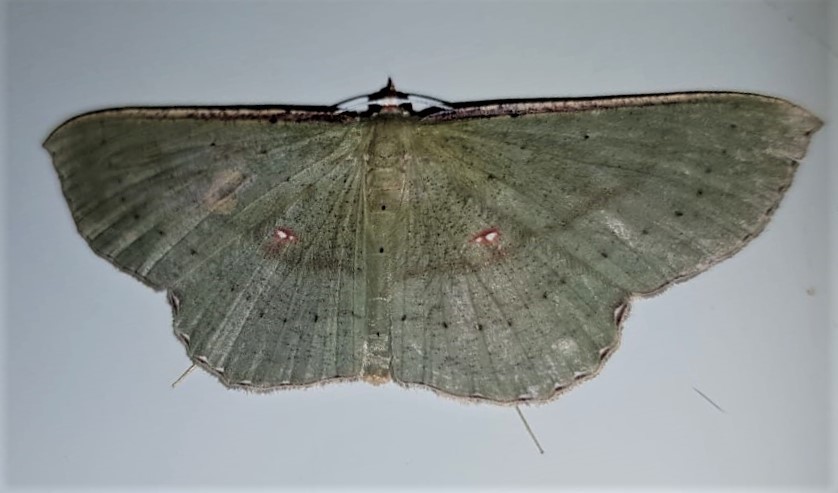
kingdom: Animalia
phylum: Arthropoda
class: Insecta
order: Lepidoptera
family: Geometridae
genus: Ametris
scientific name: Ametris nitocris
